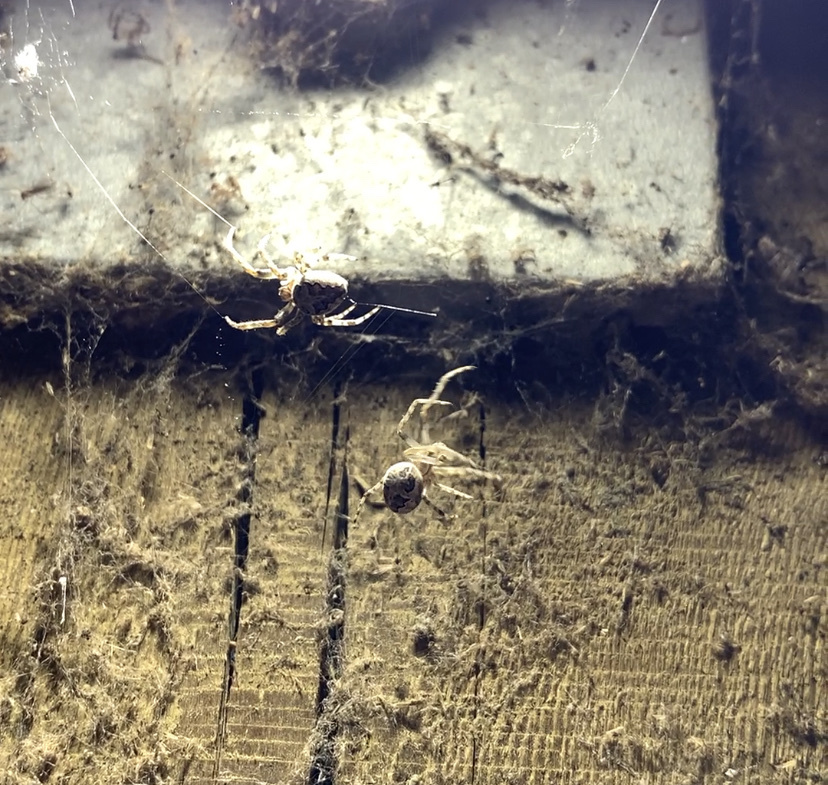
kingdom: Animalia
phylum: Arthropoda
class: Arachnida
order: Araneae
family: Araneidae
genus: Larinioides
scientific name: Larinioides sclopetarius
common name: Bridge orbweaver
